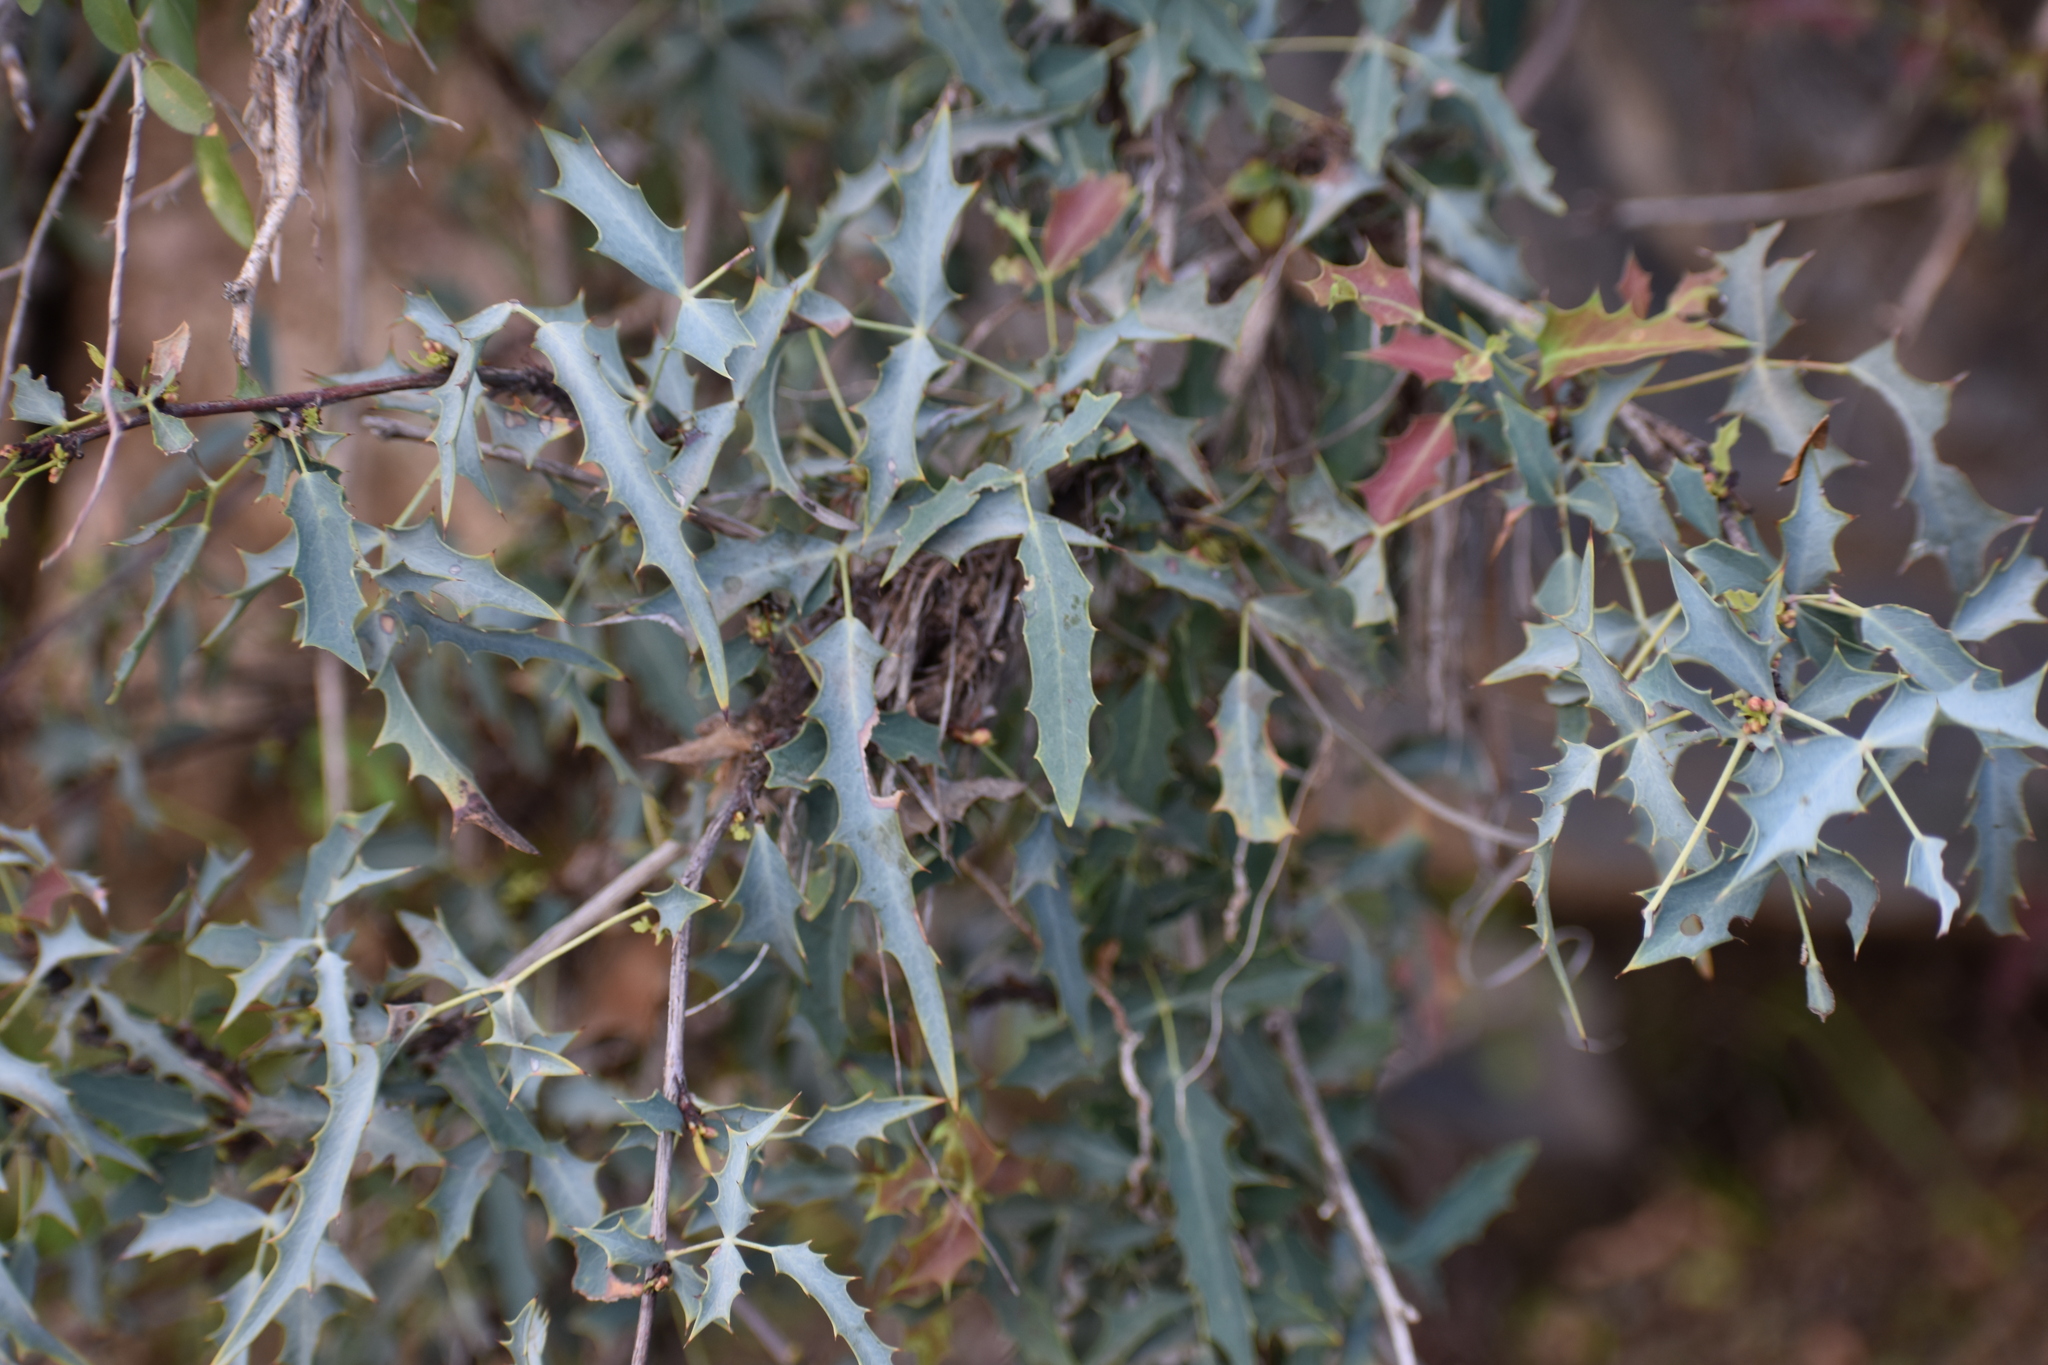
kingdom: Plantae
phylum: Tracheophyta
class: Magnoliopsida
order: Ranunculales
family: Berberidaceae
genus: Alloberberis
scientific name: Alloberberis haematocarpa
